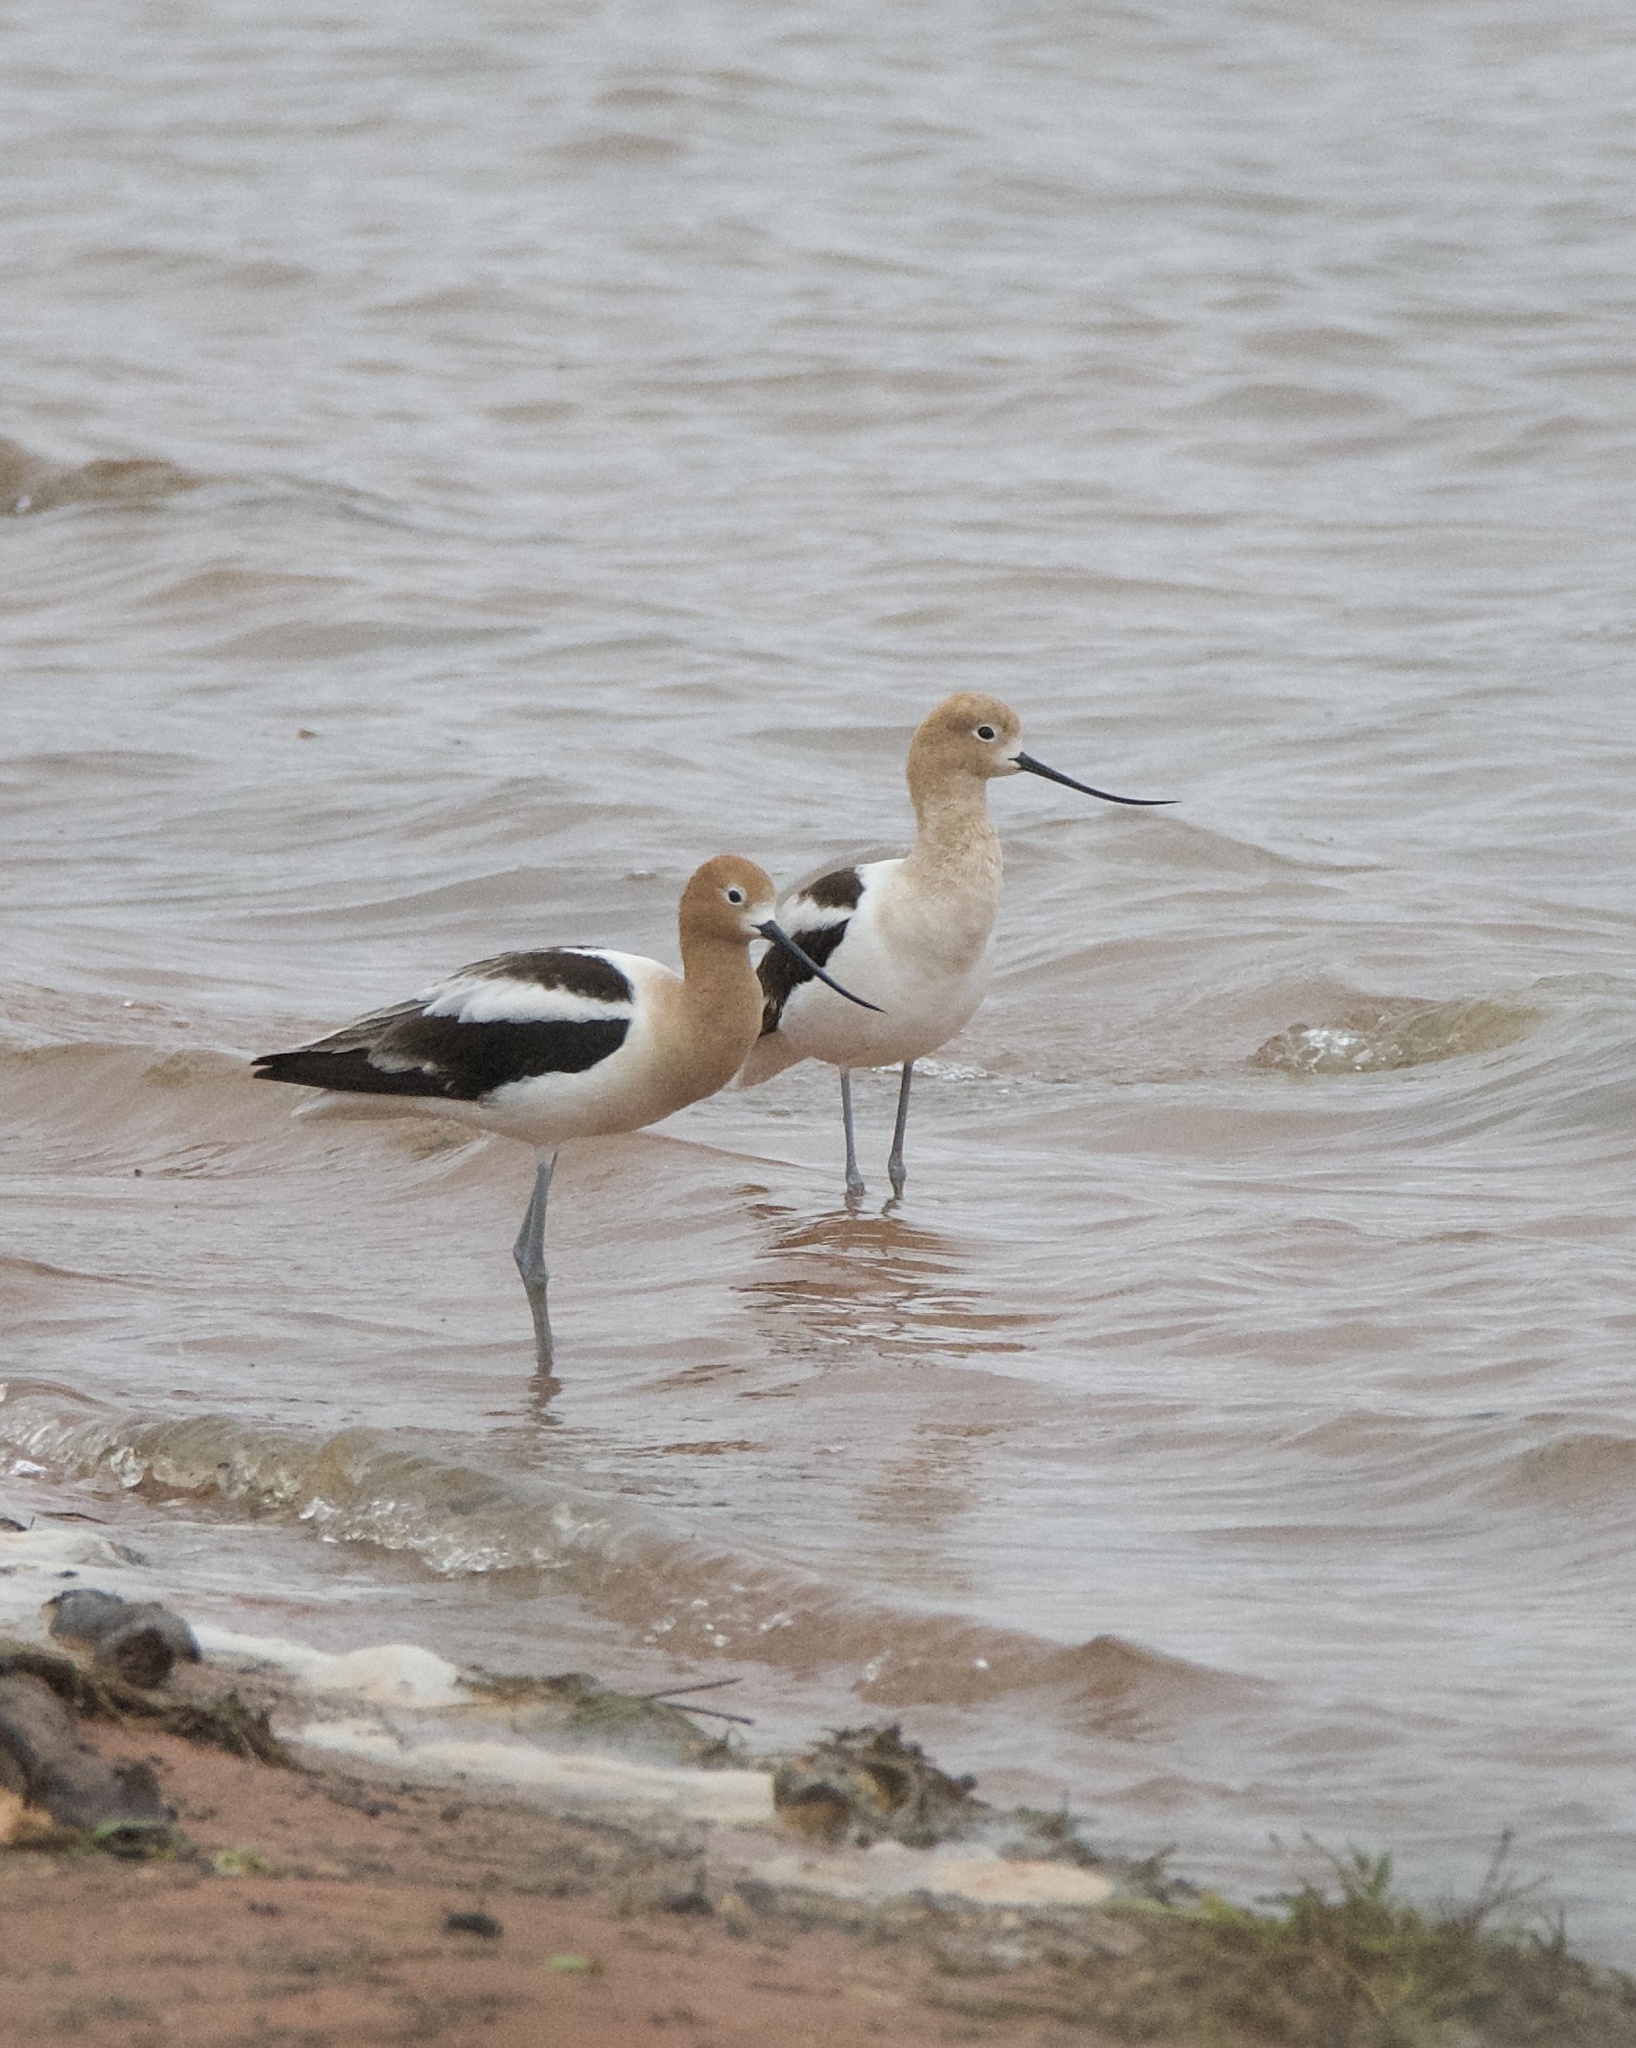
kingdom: Animalia
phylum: Chordata
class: Aves
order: Charadriiformes
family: Recurvirostridae
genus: Recurvirostra
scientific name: Recurvirostra americana
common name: American avocet
